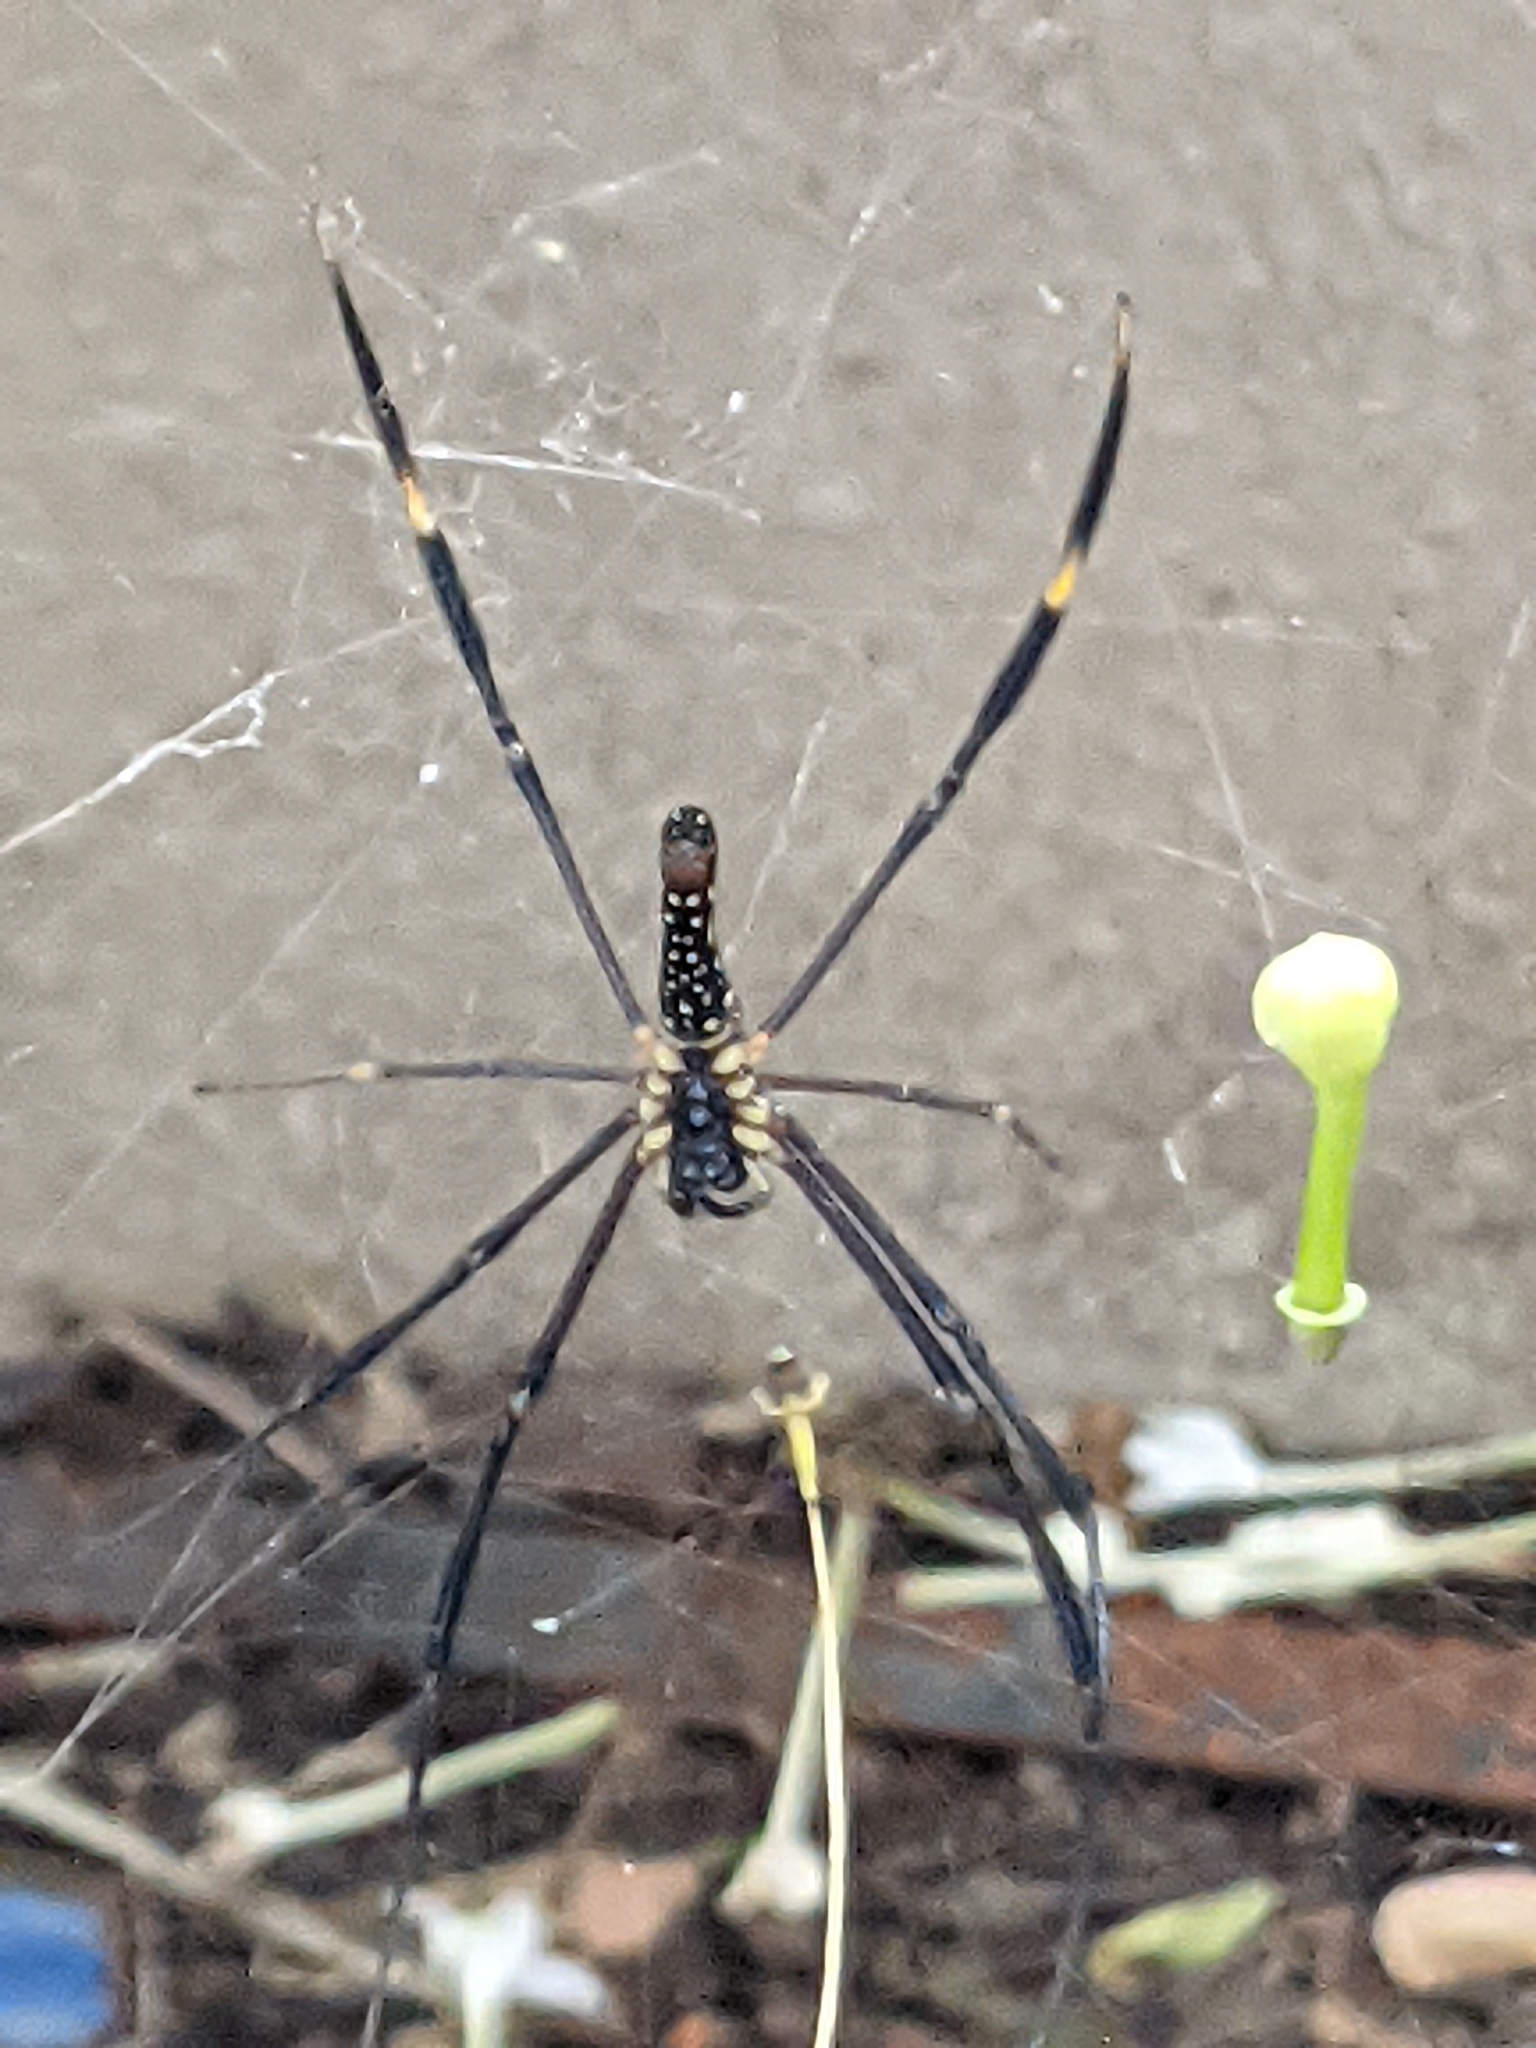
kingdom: Animalia
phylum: Arthropoda
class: Arachnida
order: Araneae
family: Araneidae
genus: Nephila
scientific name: Nephila pilipes
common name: Giant golden orb weaver
